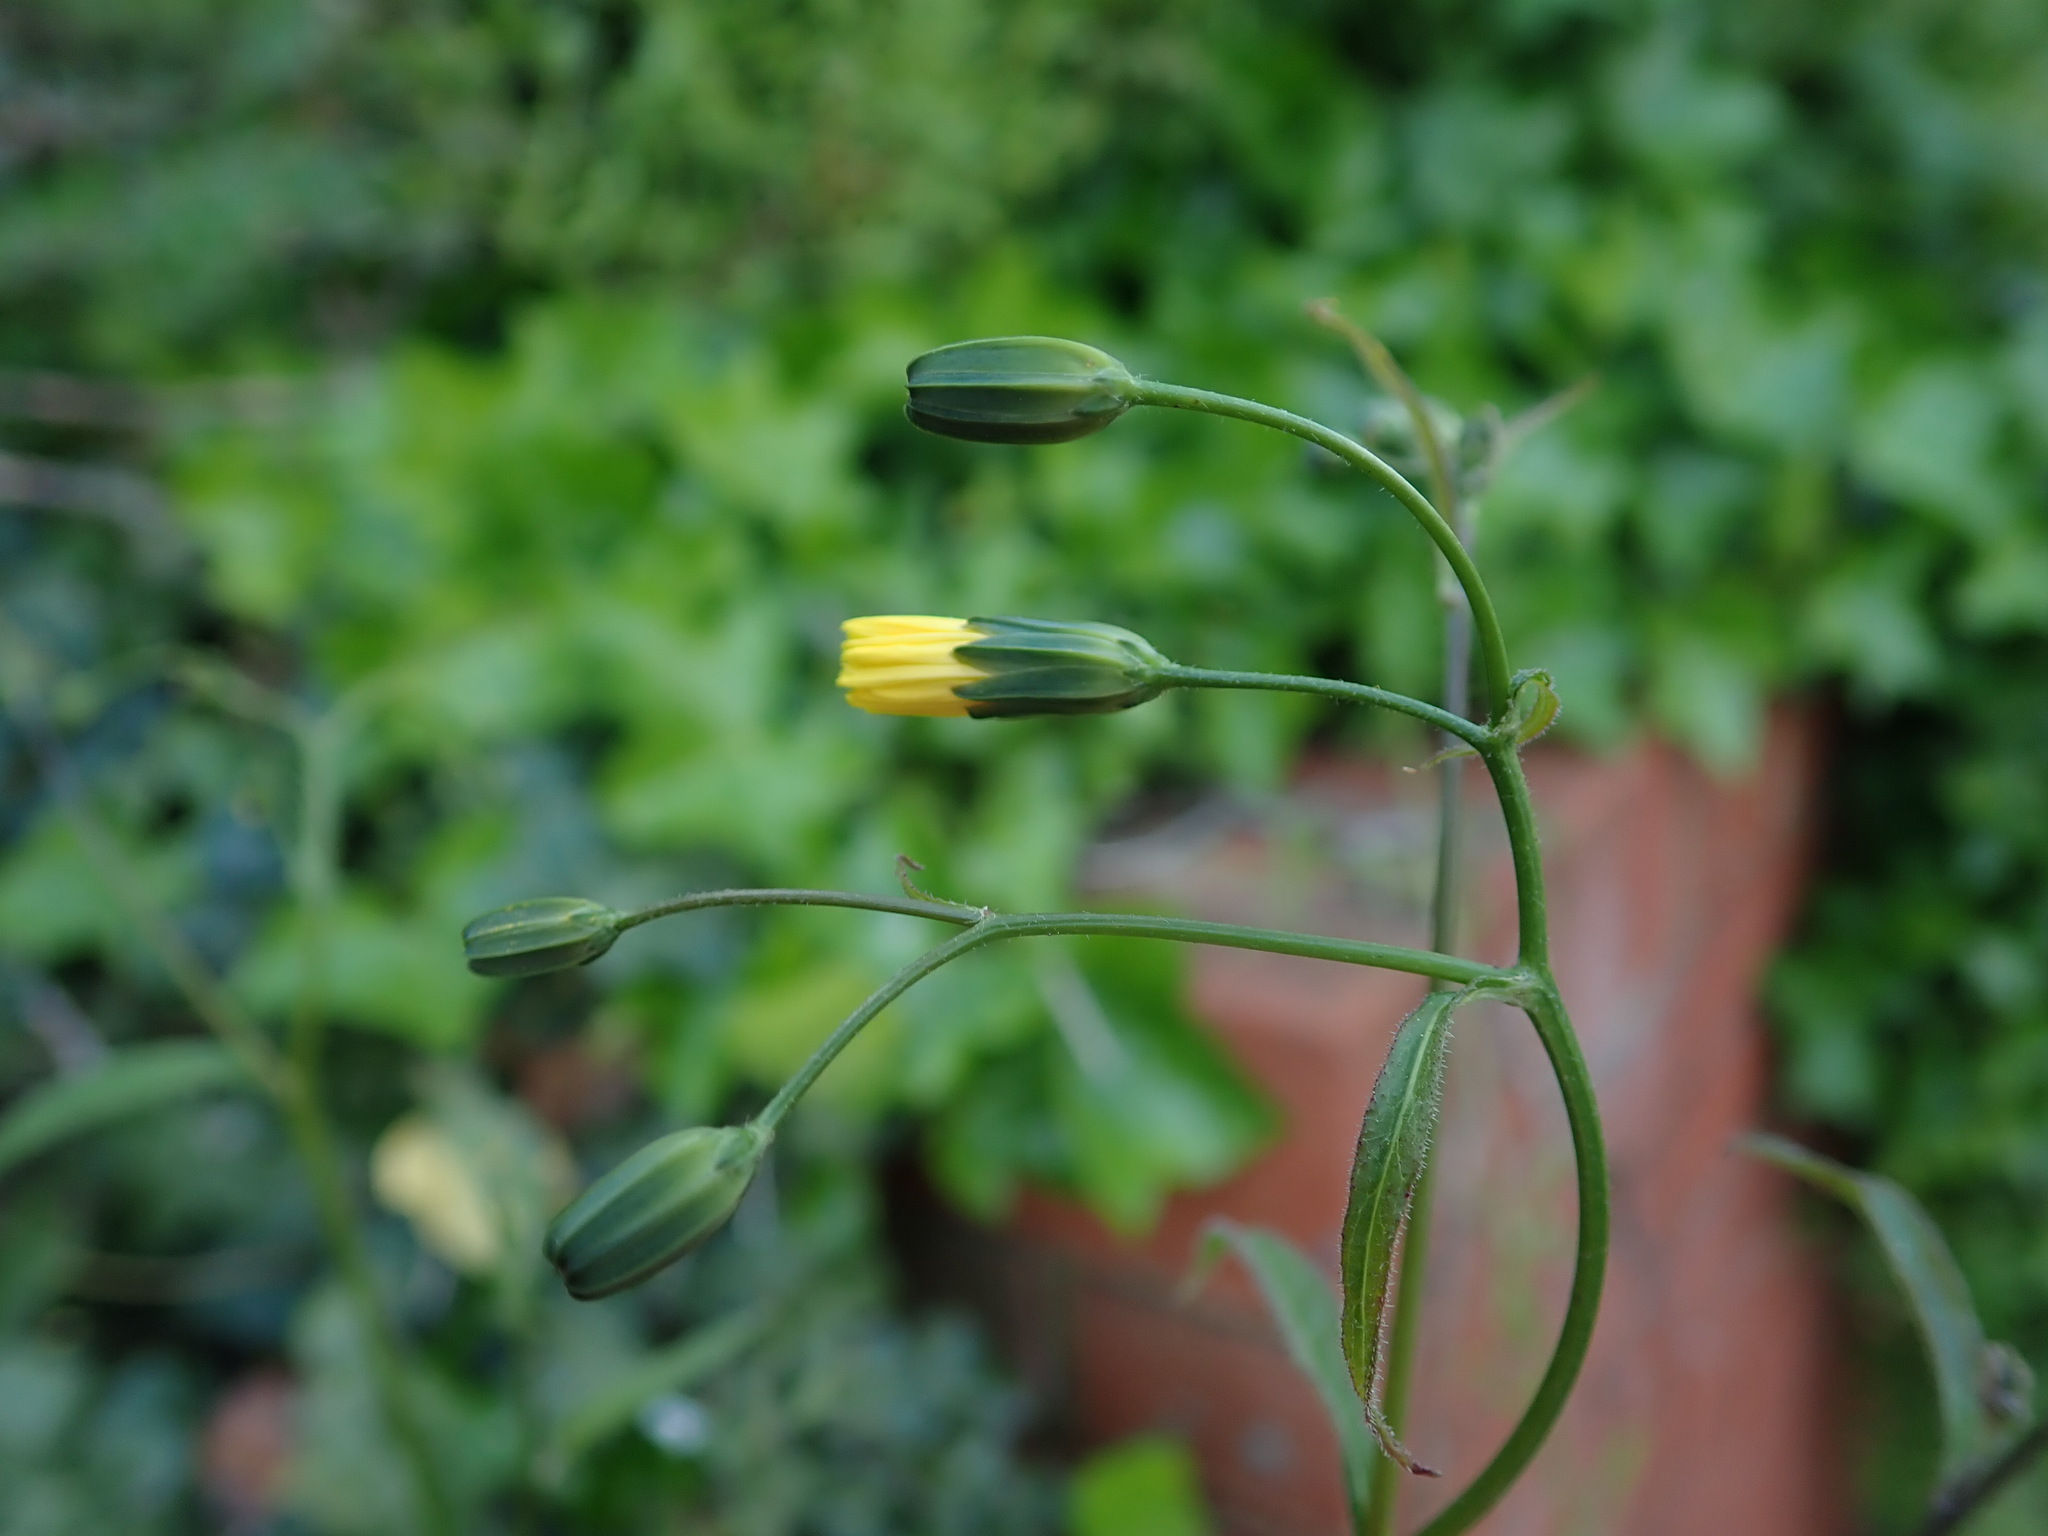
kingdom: Plantae
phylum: Tracheophyta
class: Magnoliopsida
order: Asterales
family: Asteraceae
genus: Lapsana
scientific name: Lapsana communis
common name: Nipplewort
